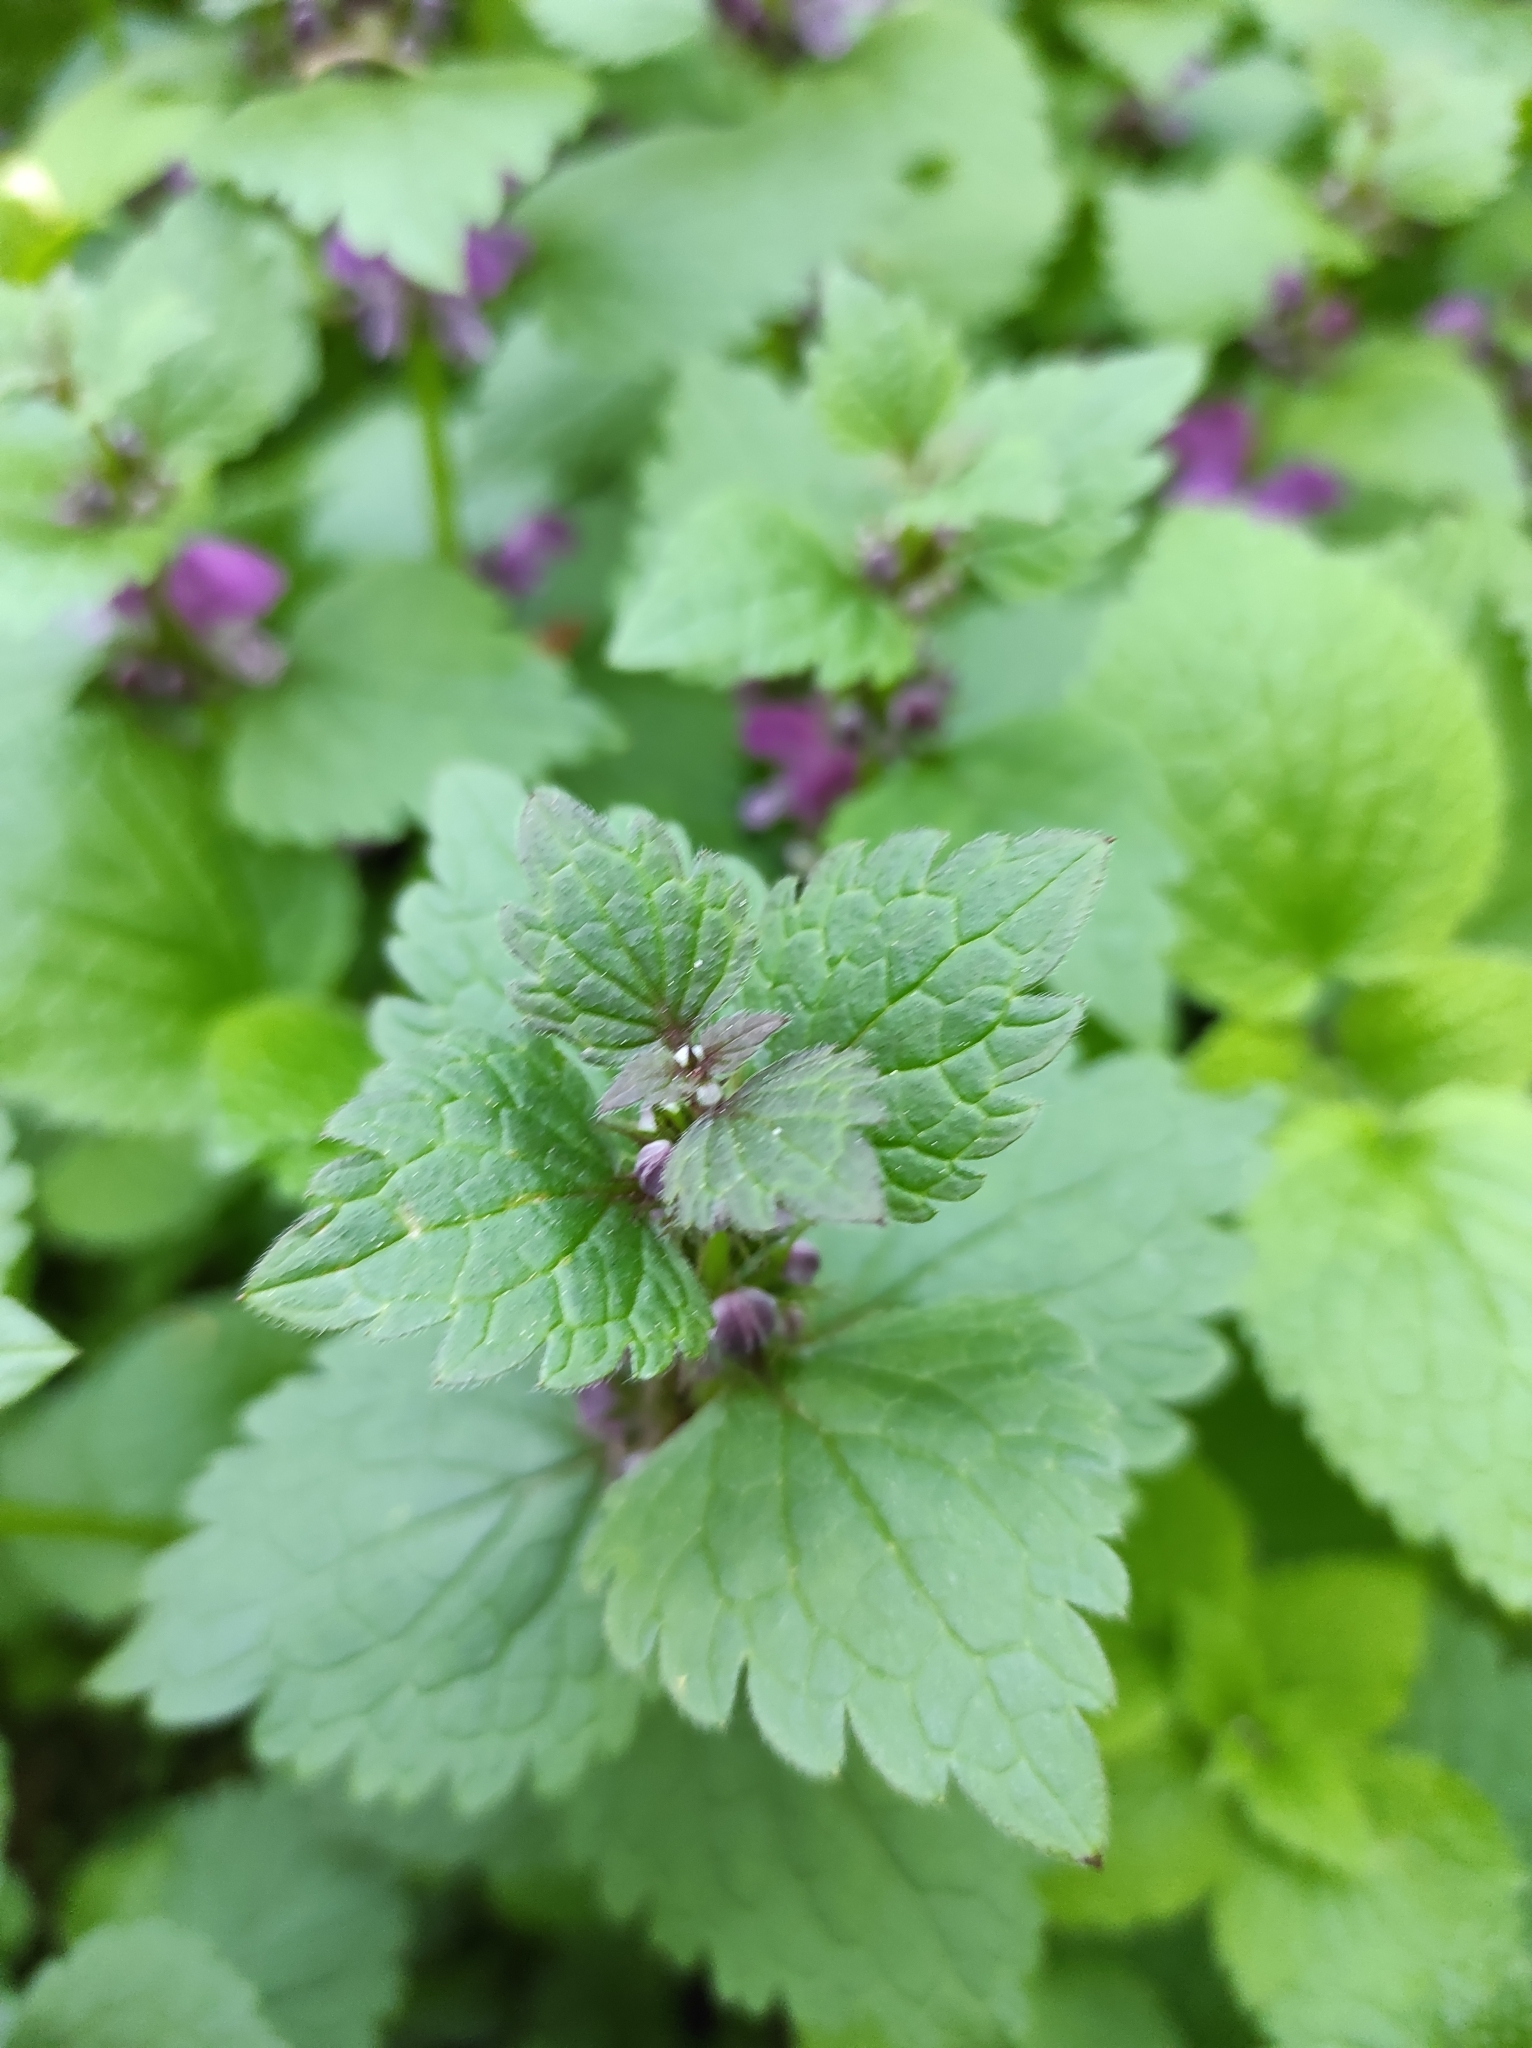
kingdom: Plantae
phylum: Tracheophyta
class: Magnoliopsida
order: Lamiales
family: Lamiaceae
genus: Lamium
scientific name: Lamium maculatum
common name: Spotted dead-nettle
